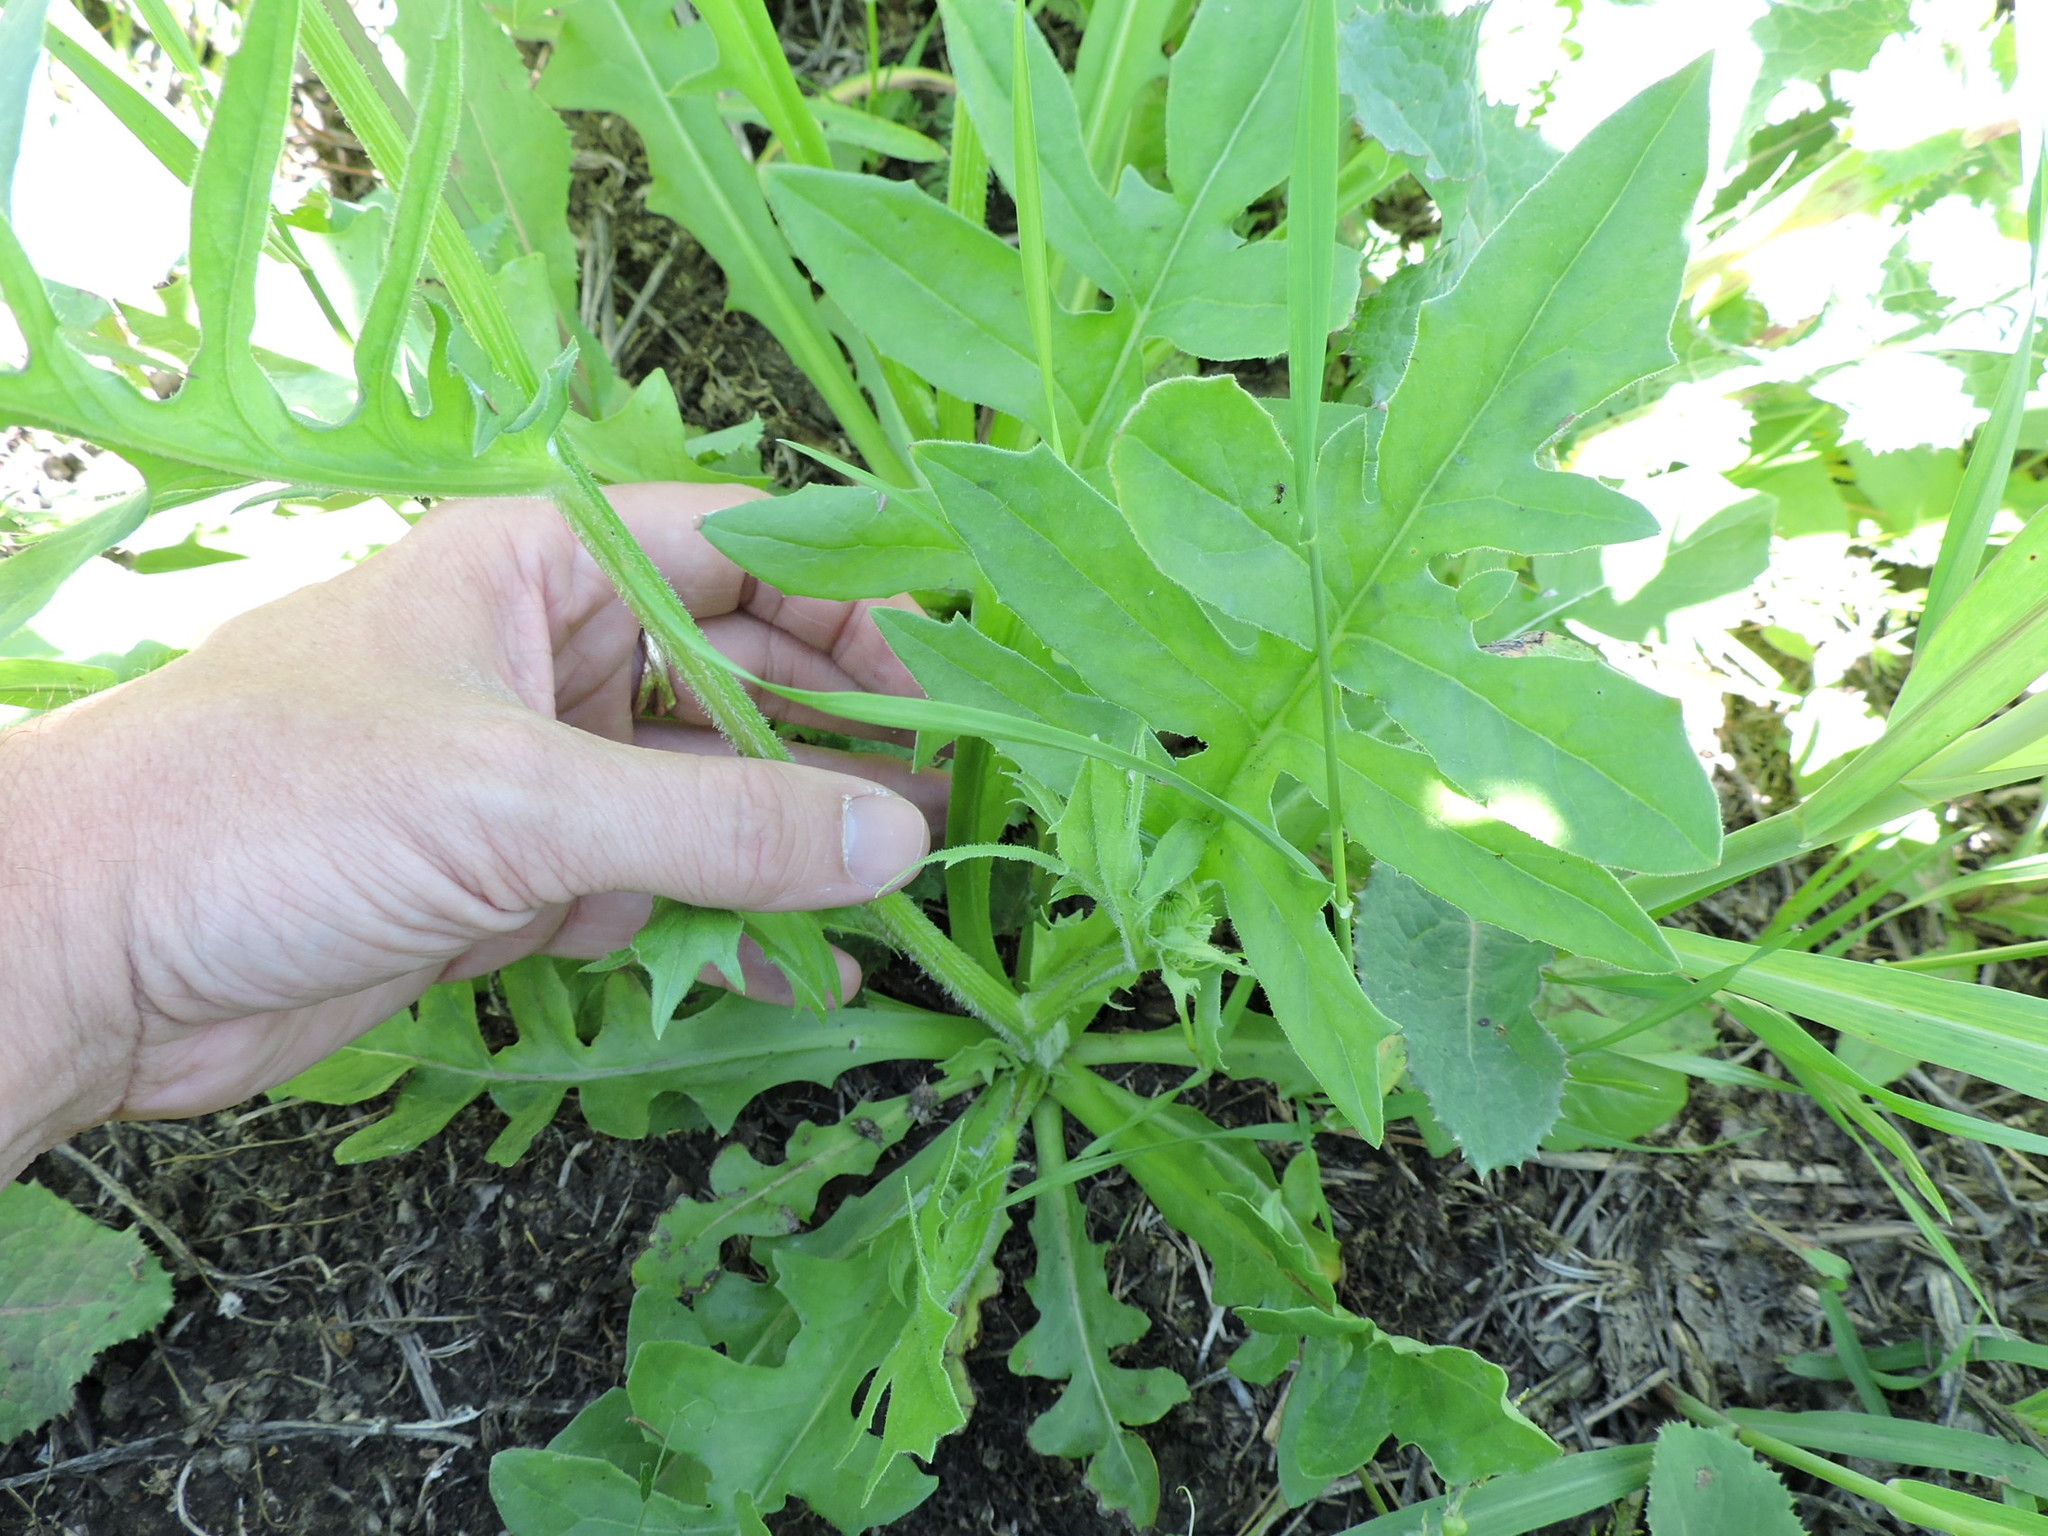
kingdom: Plantae
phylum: Tracheophyta
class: Magnoliopsida
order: Asterales
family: Asteraceae
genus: Pyrrhopappus
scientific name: Pyrrhopappus pauciflorus
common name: Texas false dandelion
